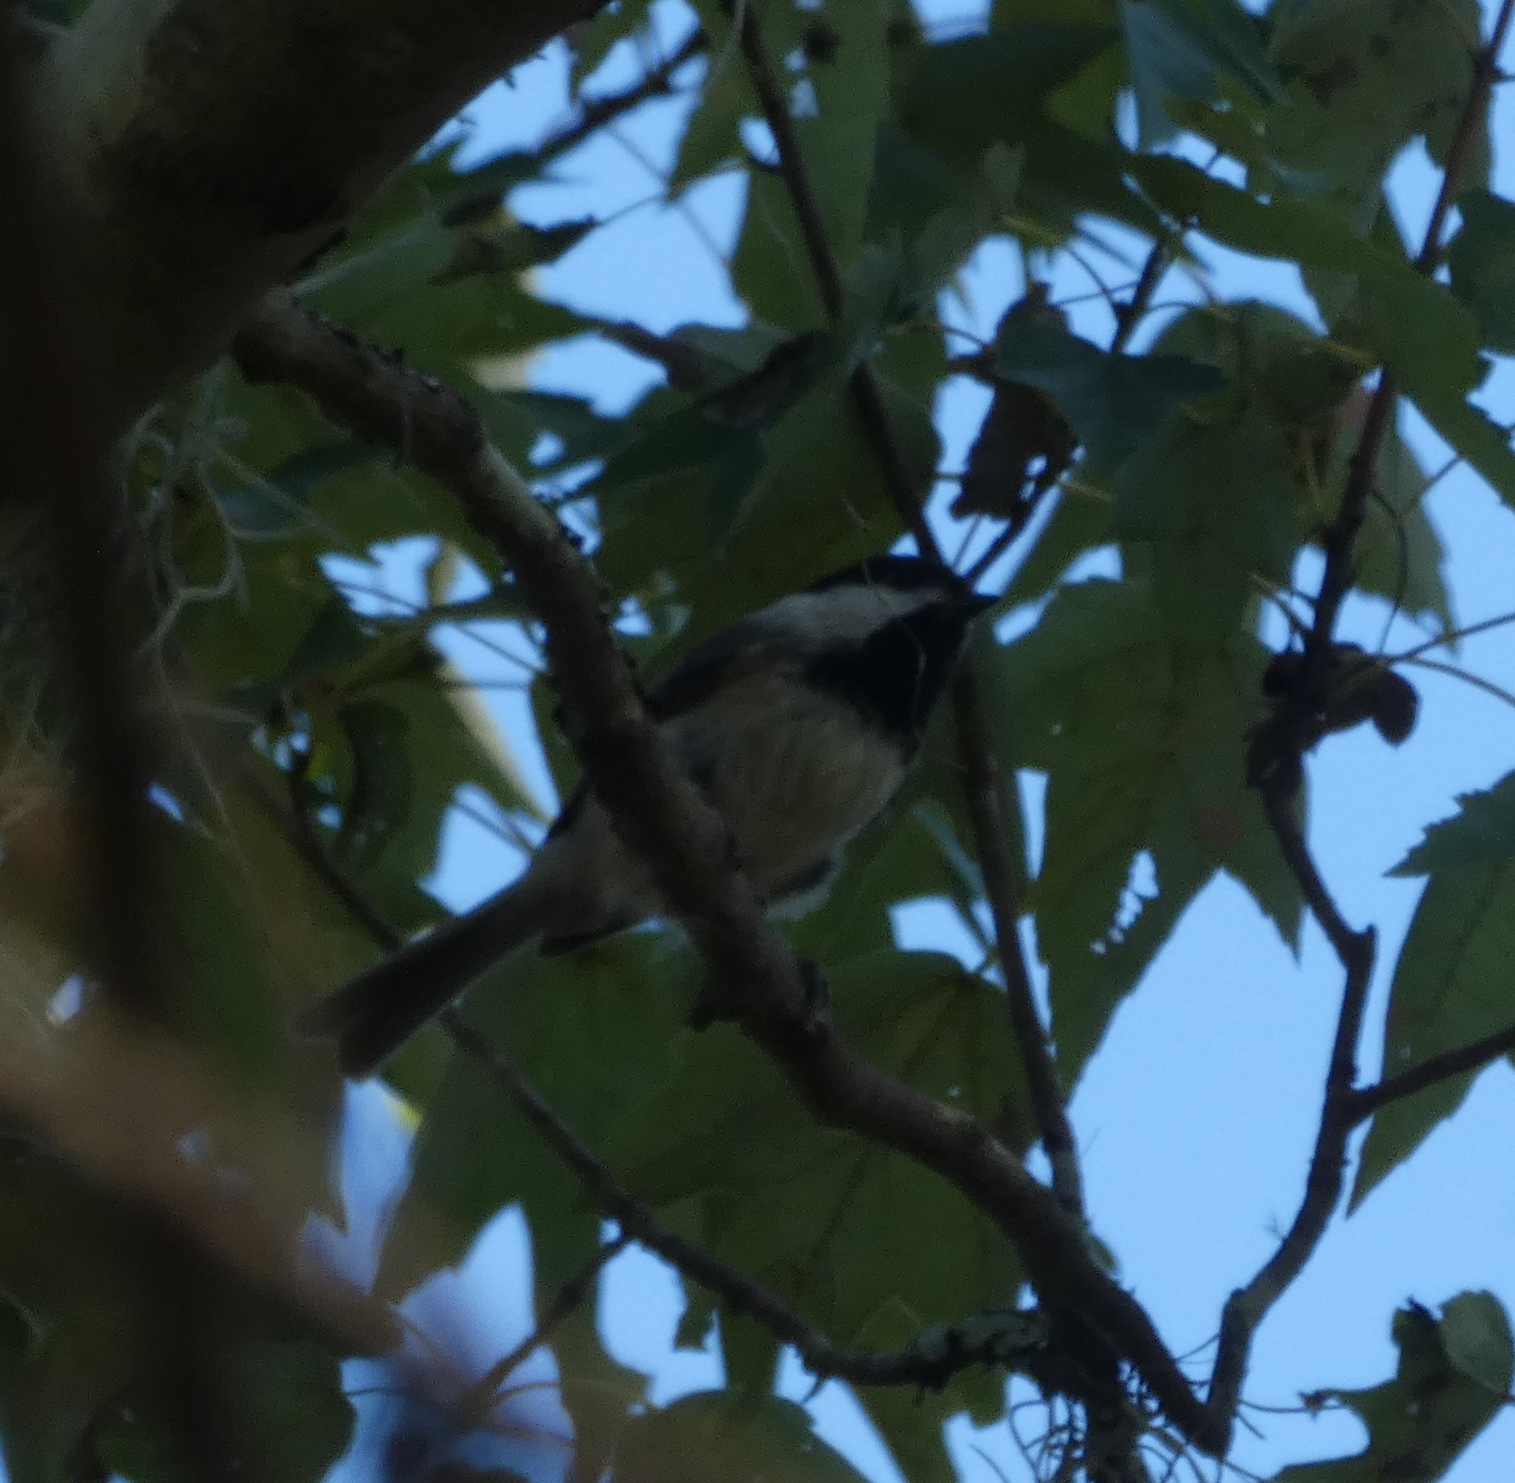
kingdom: Animalia
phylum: Chordata
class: Aves
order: Passeriformes
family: Paridae
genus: Poecile
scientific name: Poecile carolinensis
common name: Carolina chickadee
